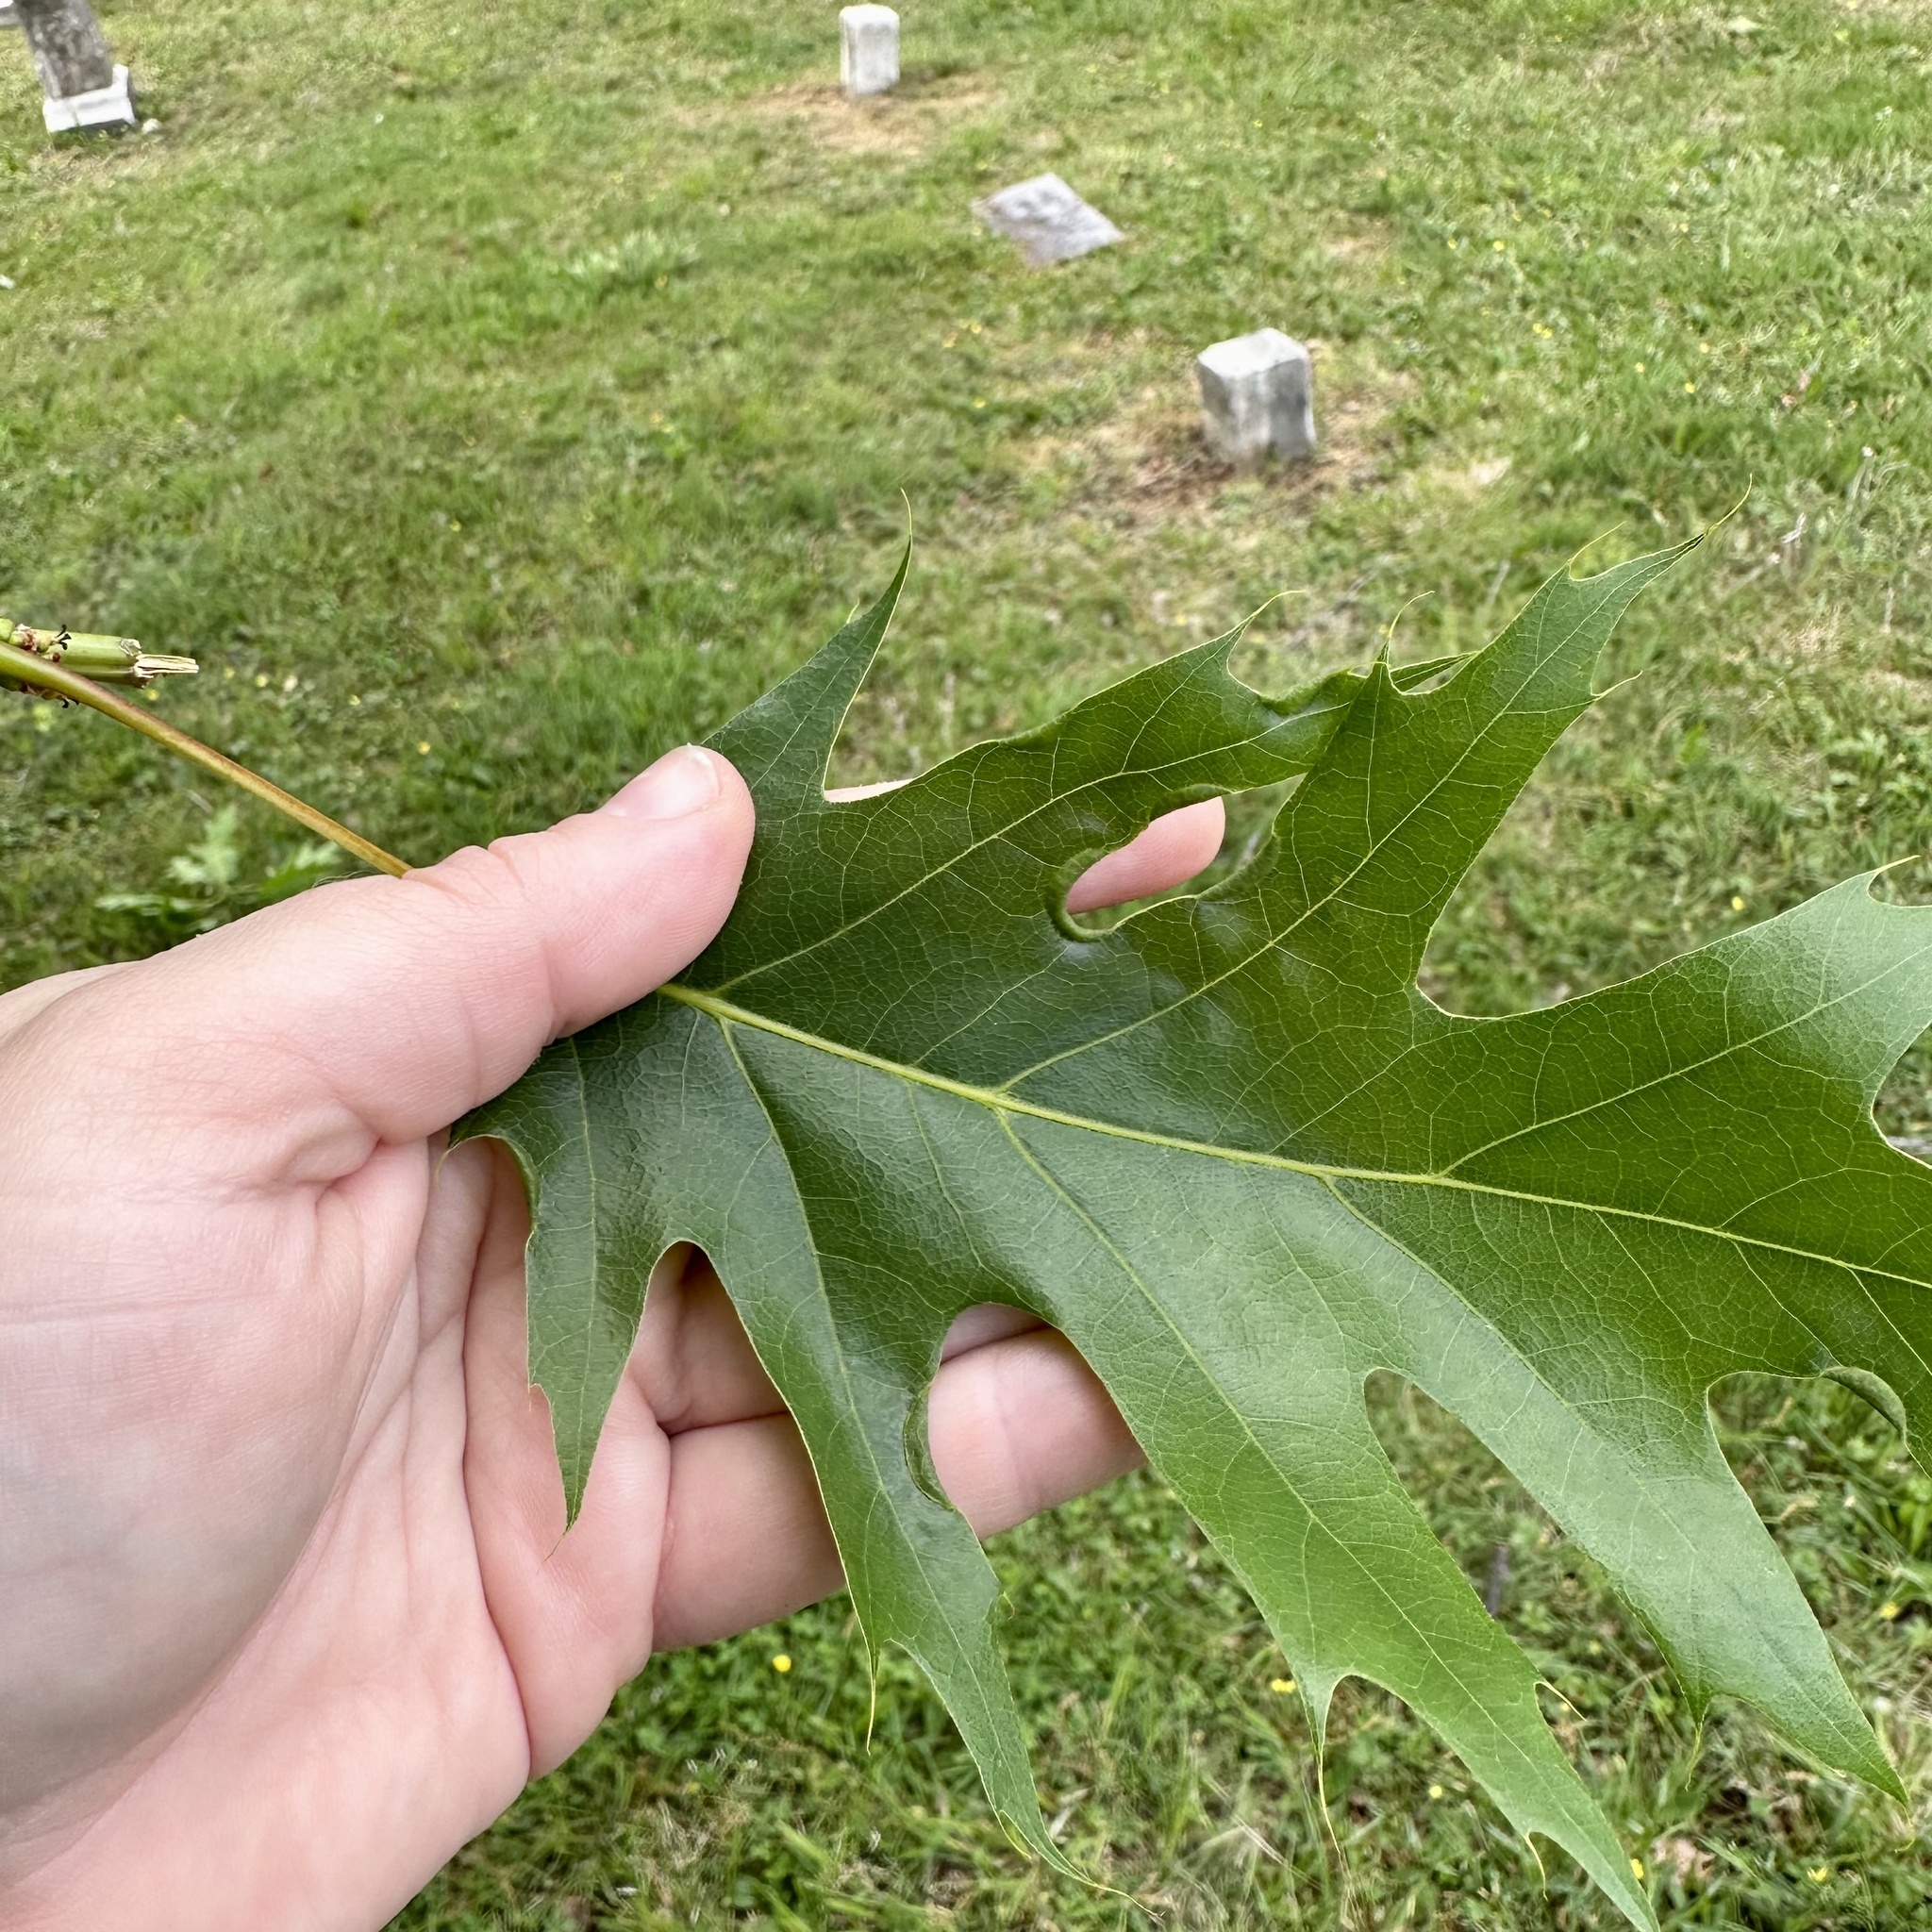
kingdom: Animalia
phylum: Arthropoda
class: Insecta
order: Diptera
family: Cecidomyiidae
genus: Macrodiplosis
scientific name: Macrodiplosis erubescens
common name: Marginal leaf fold gall midge
